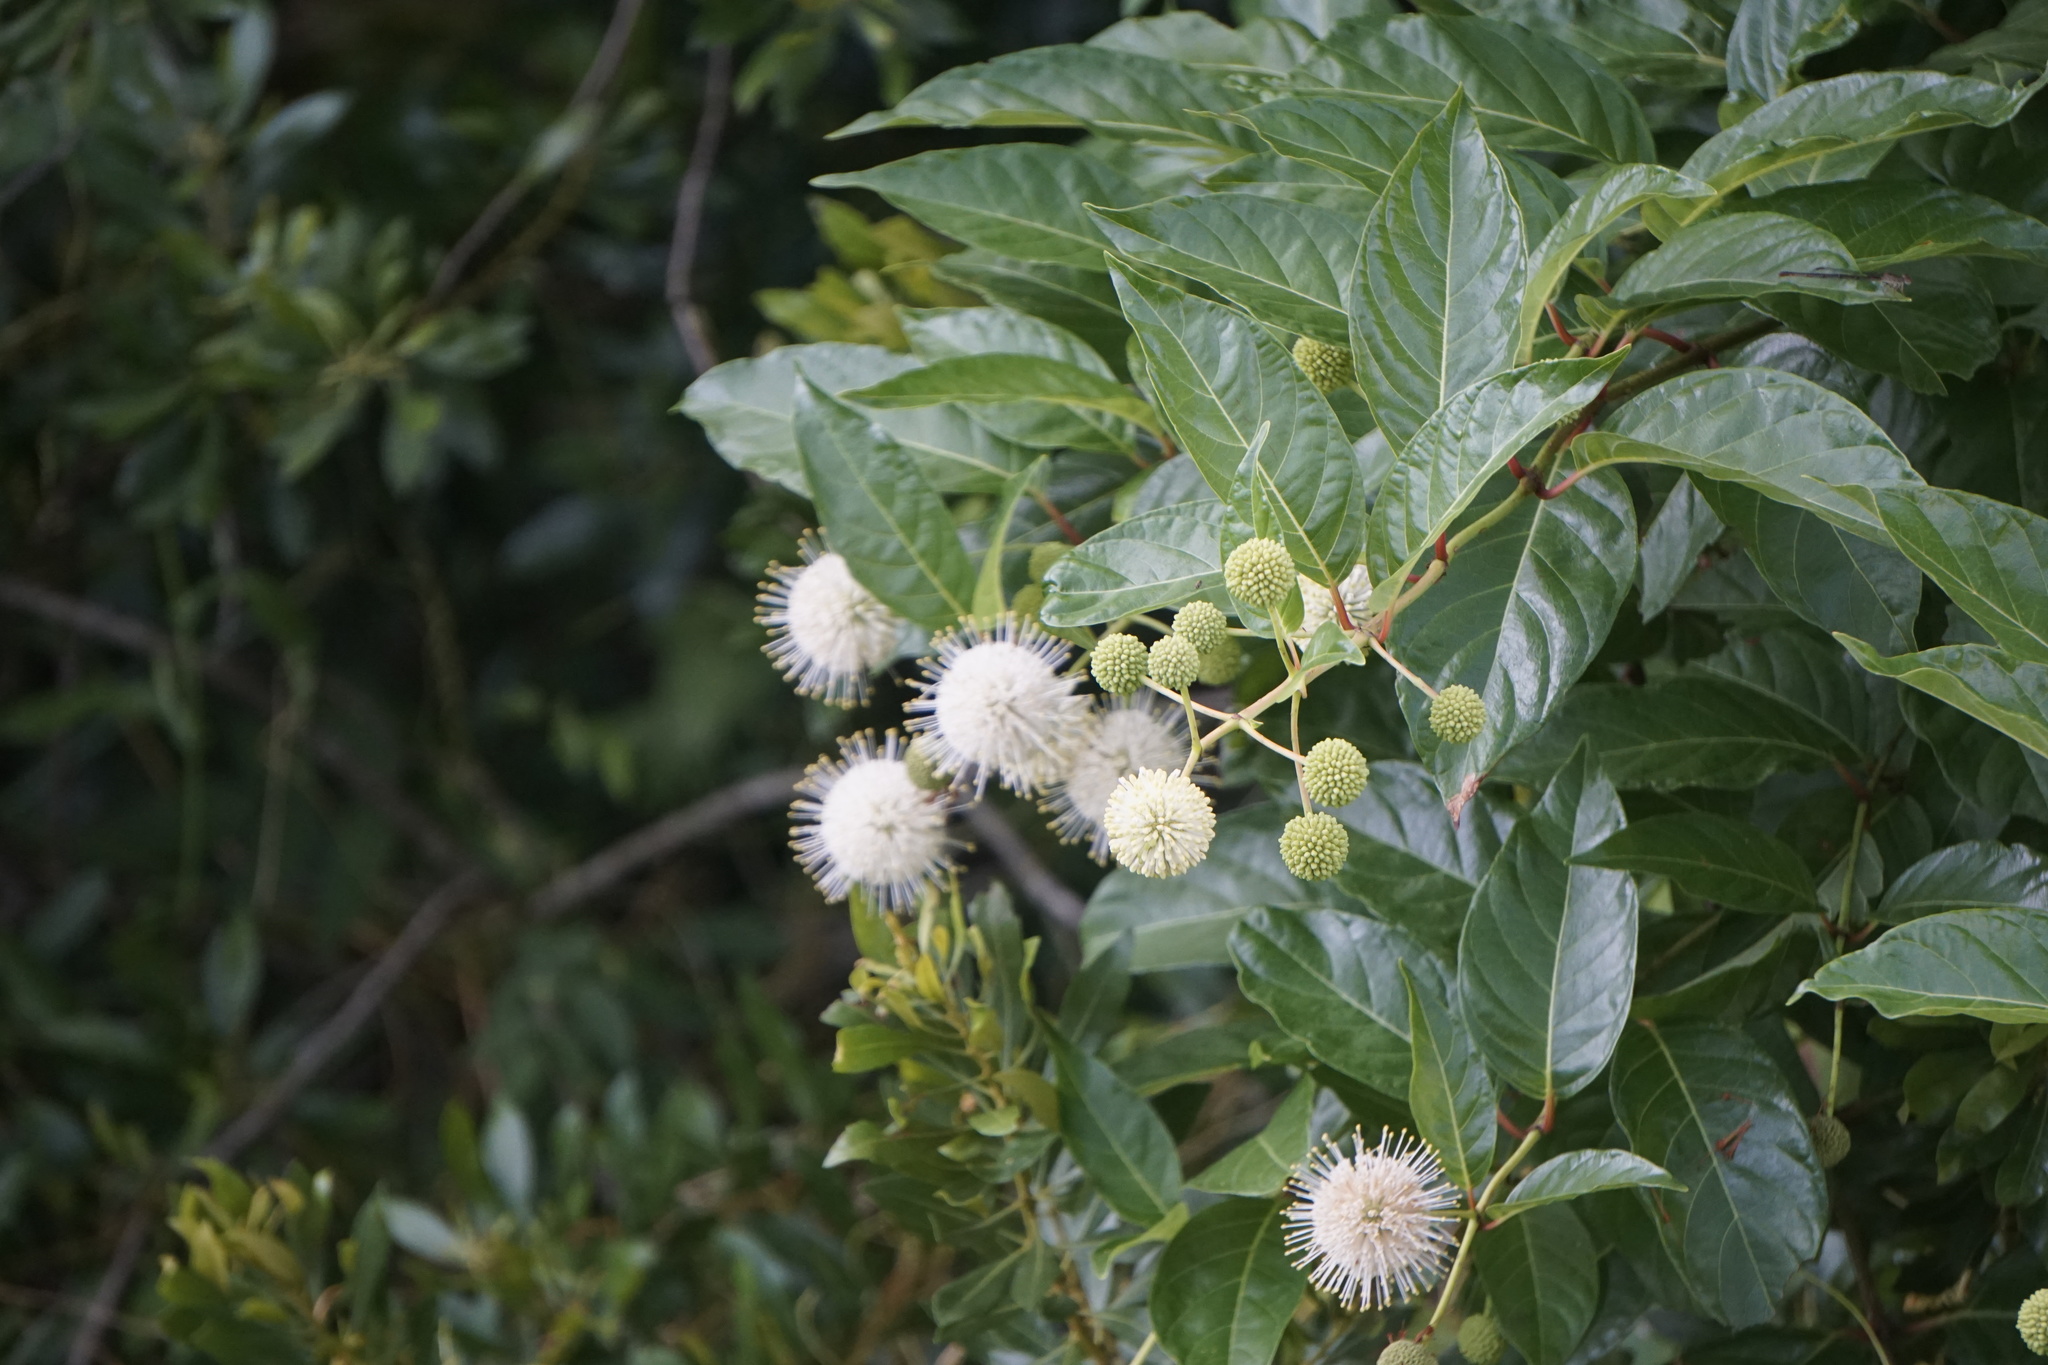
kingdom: Plantae
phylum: Tracheophyta
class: Magnoliopsida
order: Gentianales
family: Rubiaceae
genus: Cephalanthus
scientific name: Cephalanthus occidentalis
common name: Button-willow
